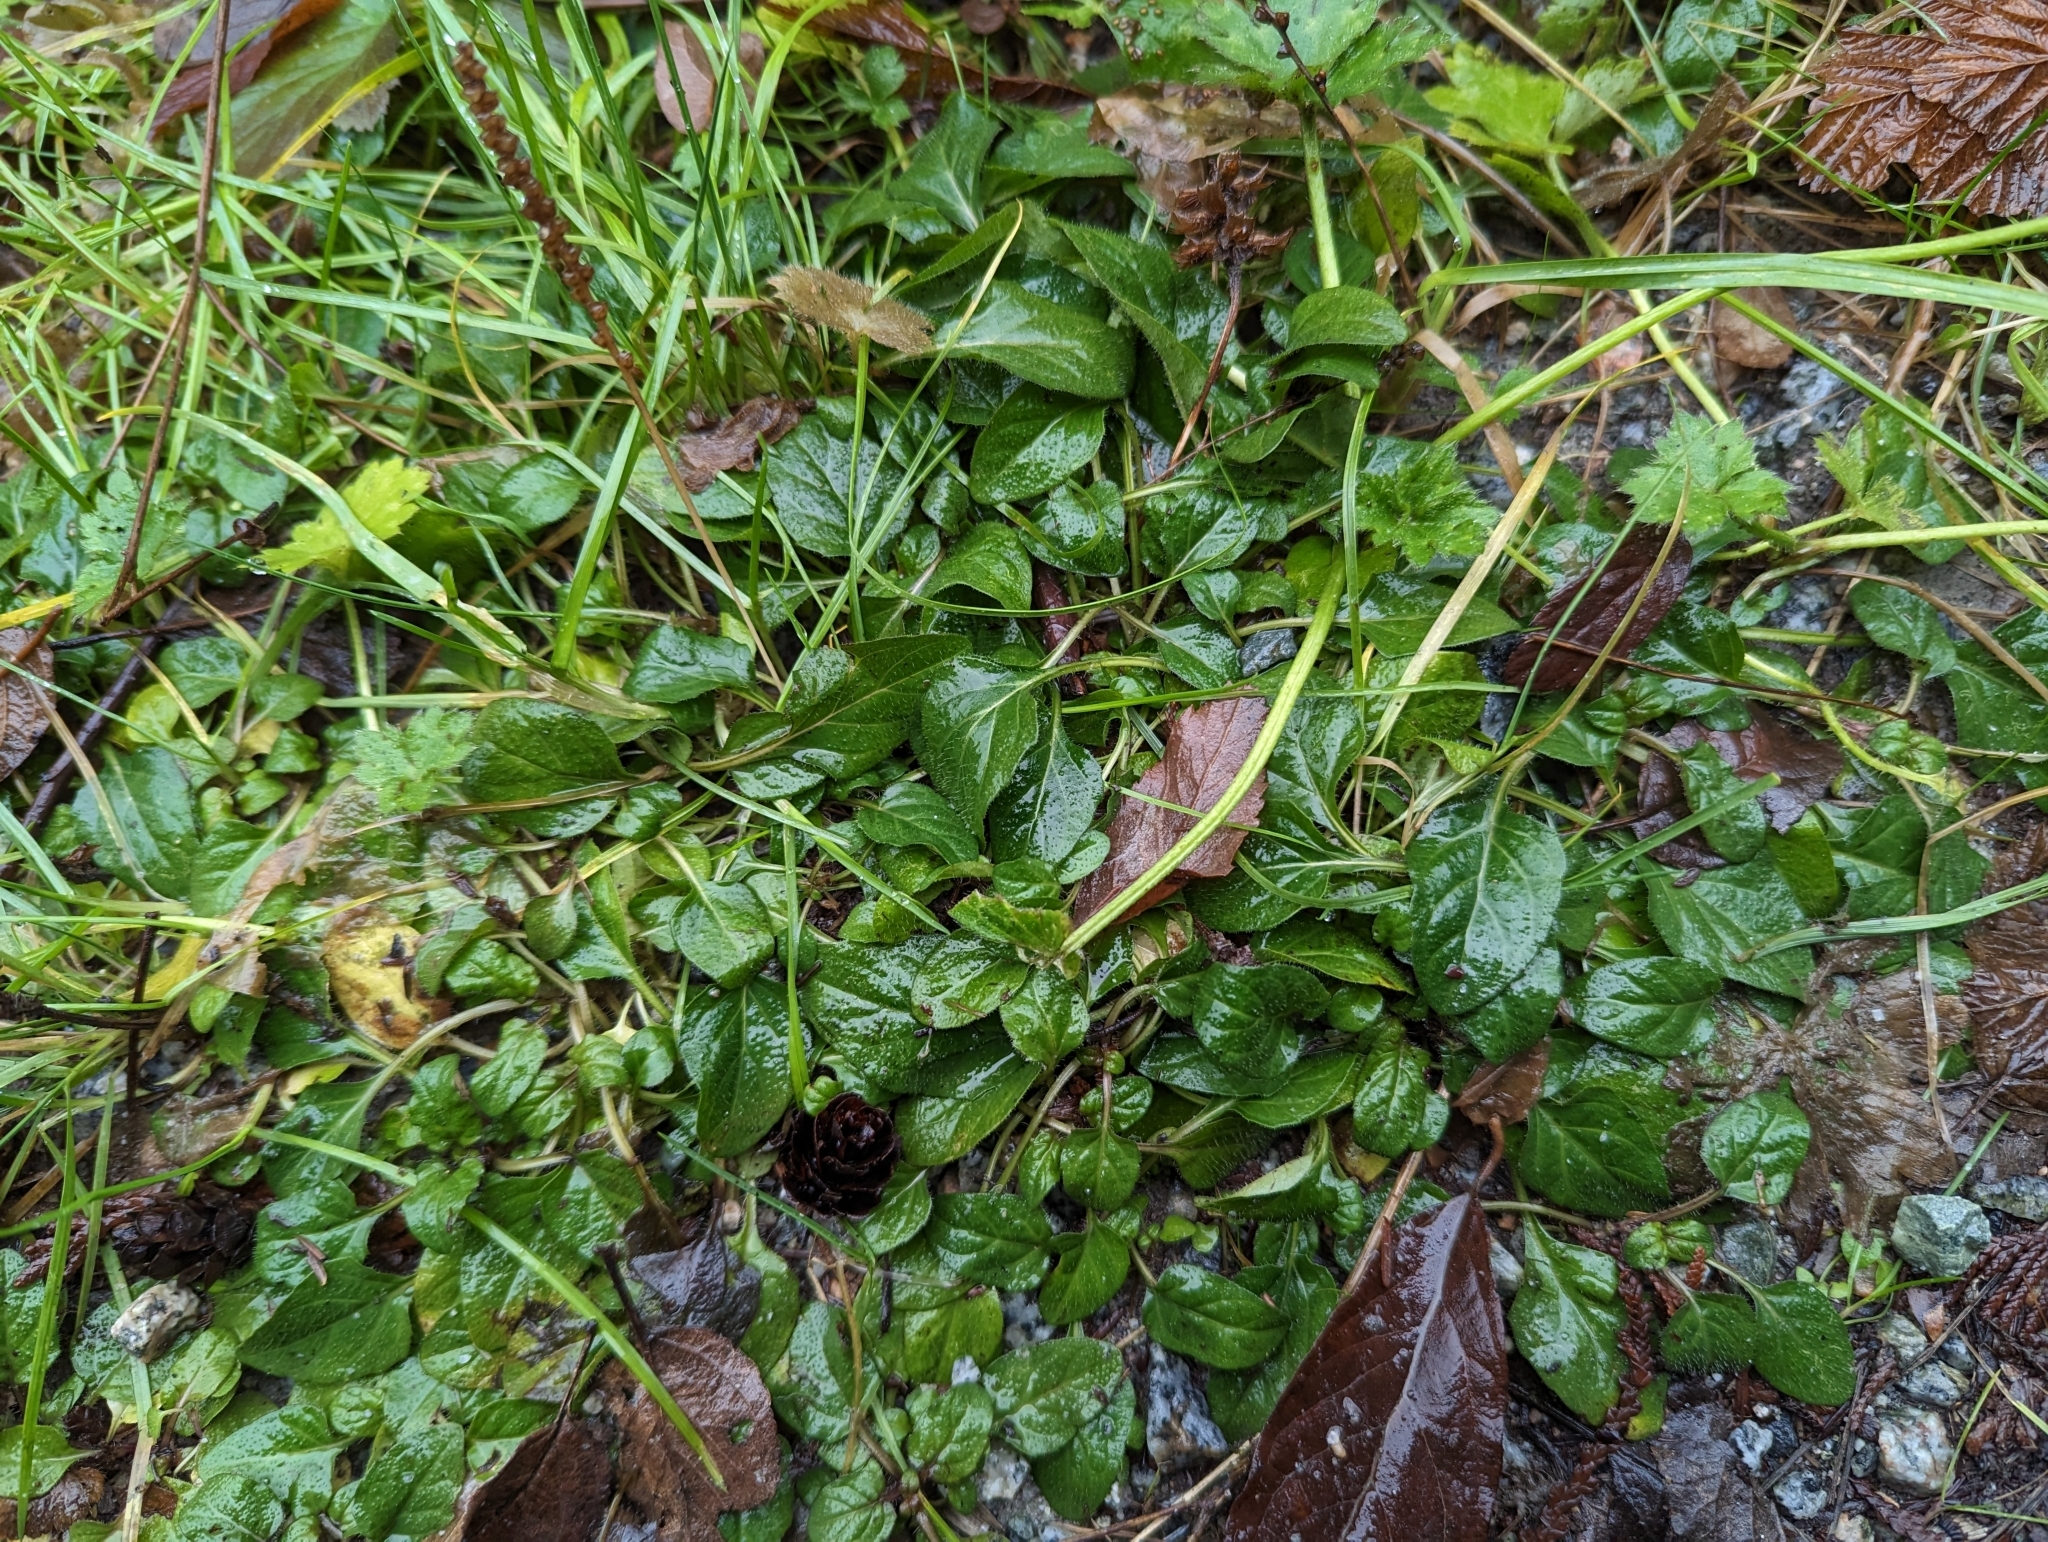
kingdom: Plantae
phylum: Tracheophyta
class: Magnoliopsida
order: Lamiales
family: Lamiaceae
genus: Prunella
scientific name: Prunella vulgaris
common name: Heal-all
